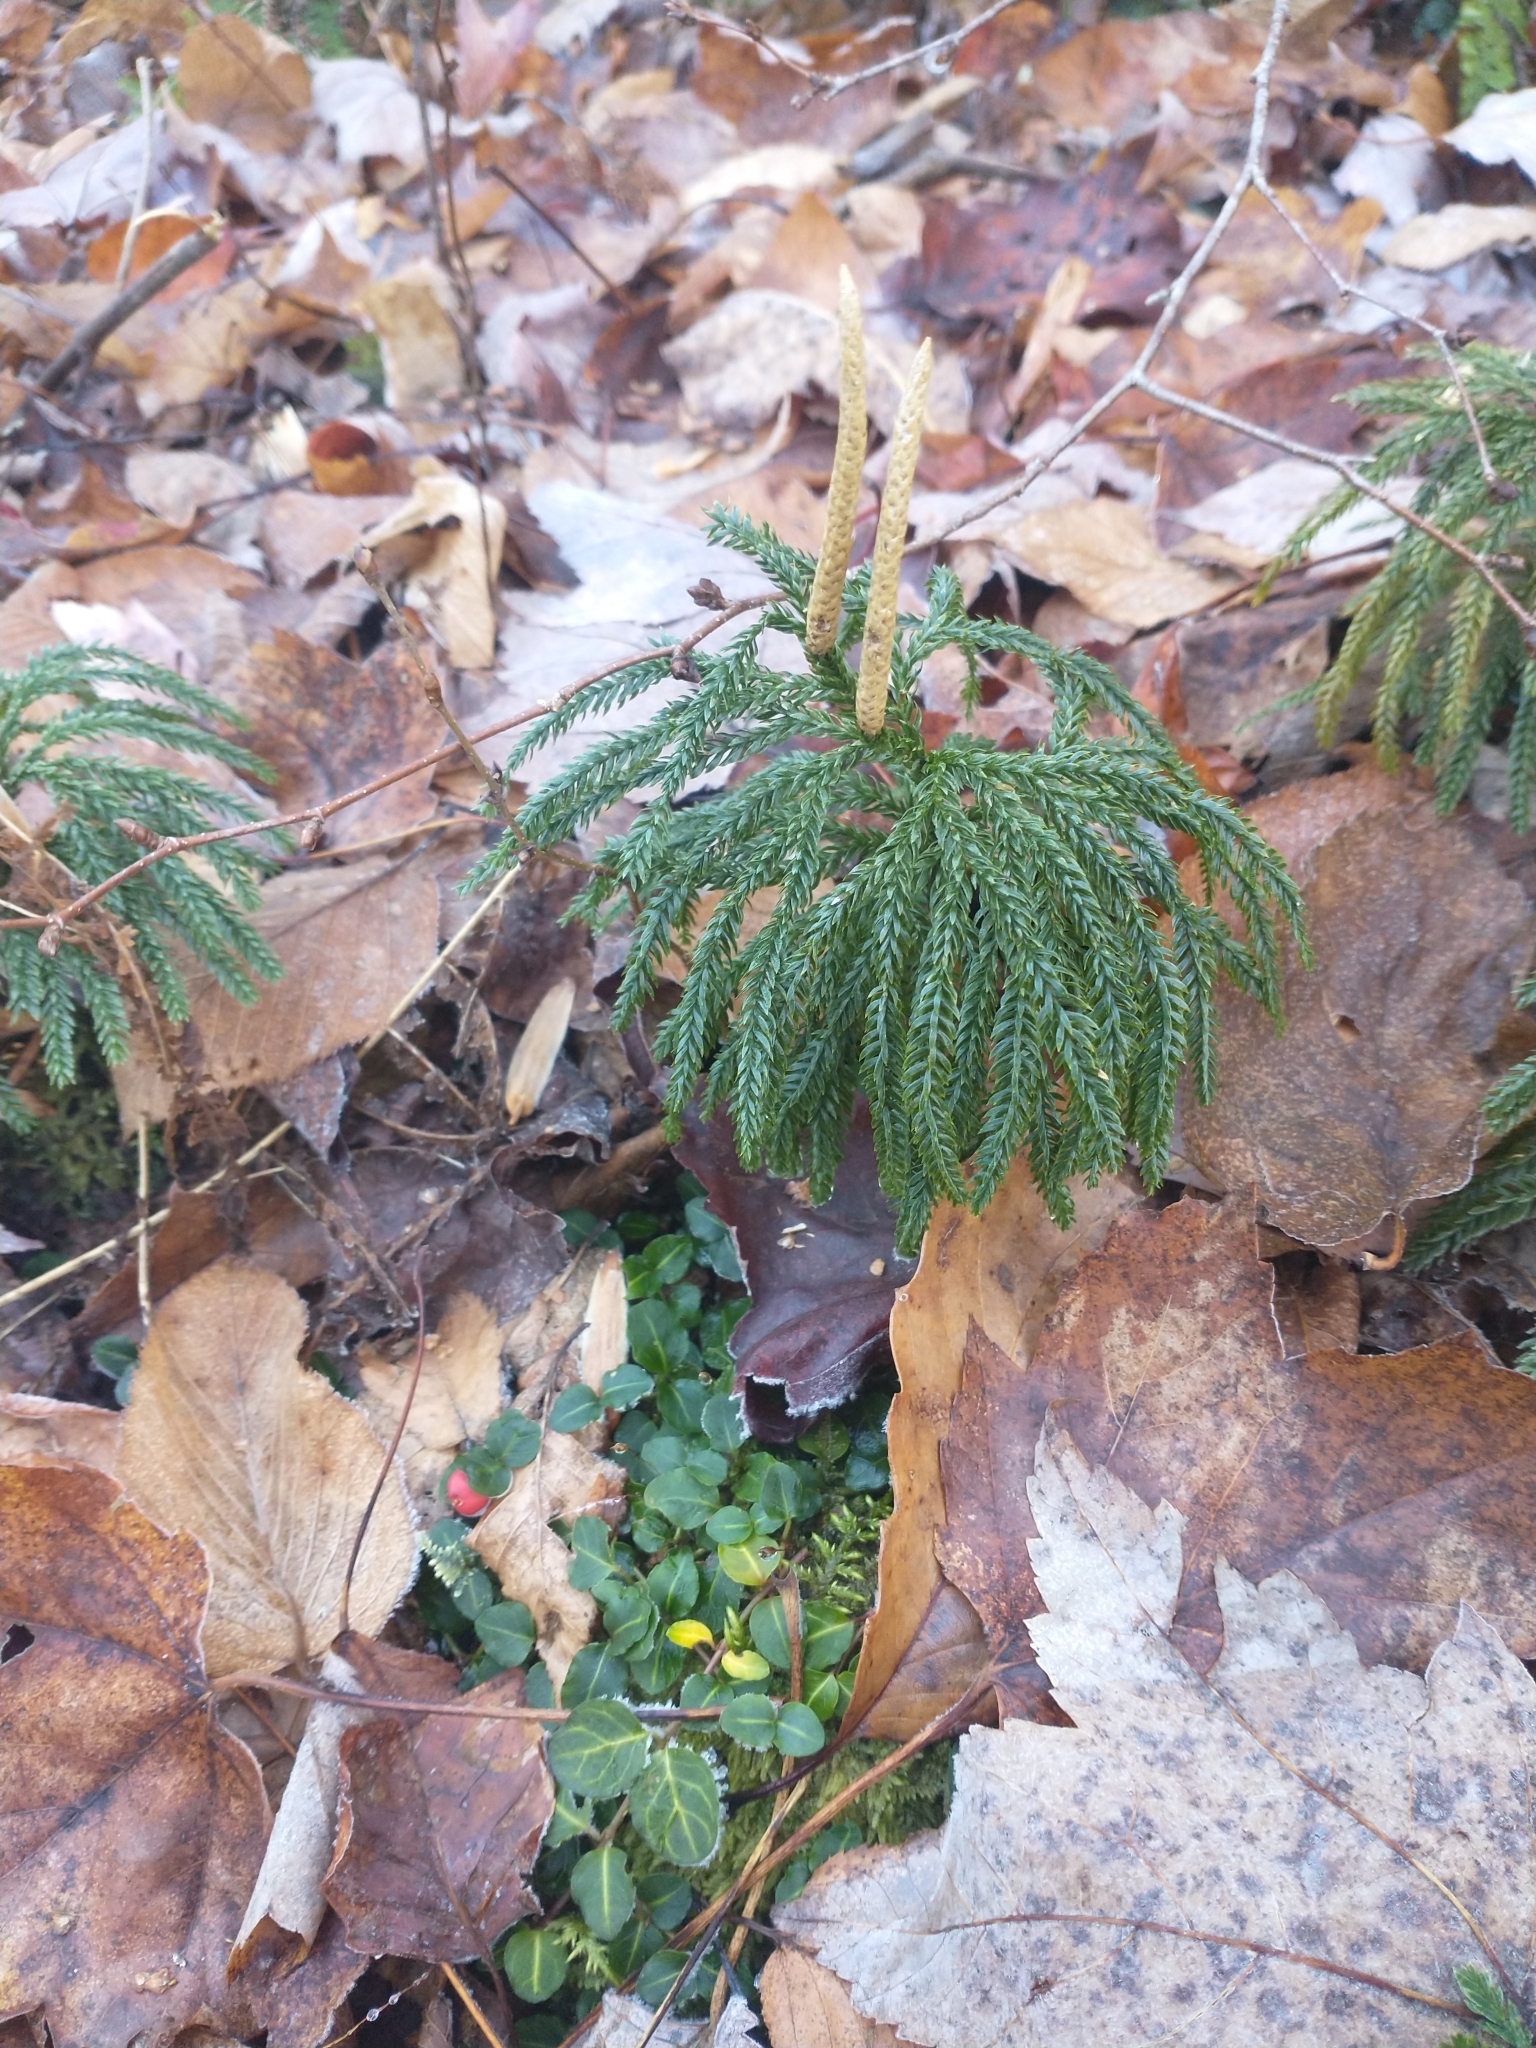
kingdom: Plantae
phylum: Tracheophyta
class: Magnoliopsida
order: Gentianales
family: Rubiaceae
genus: Mitchella
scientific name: Mitchella repens
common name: Partridge-berry
